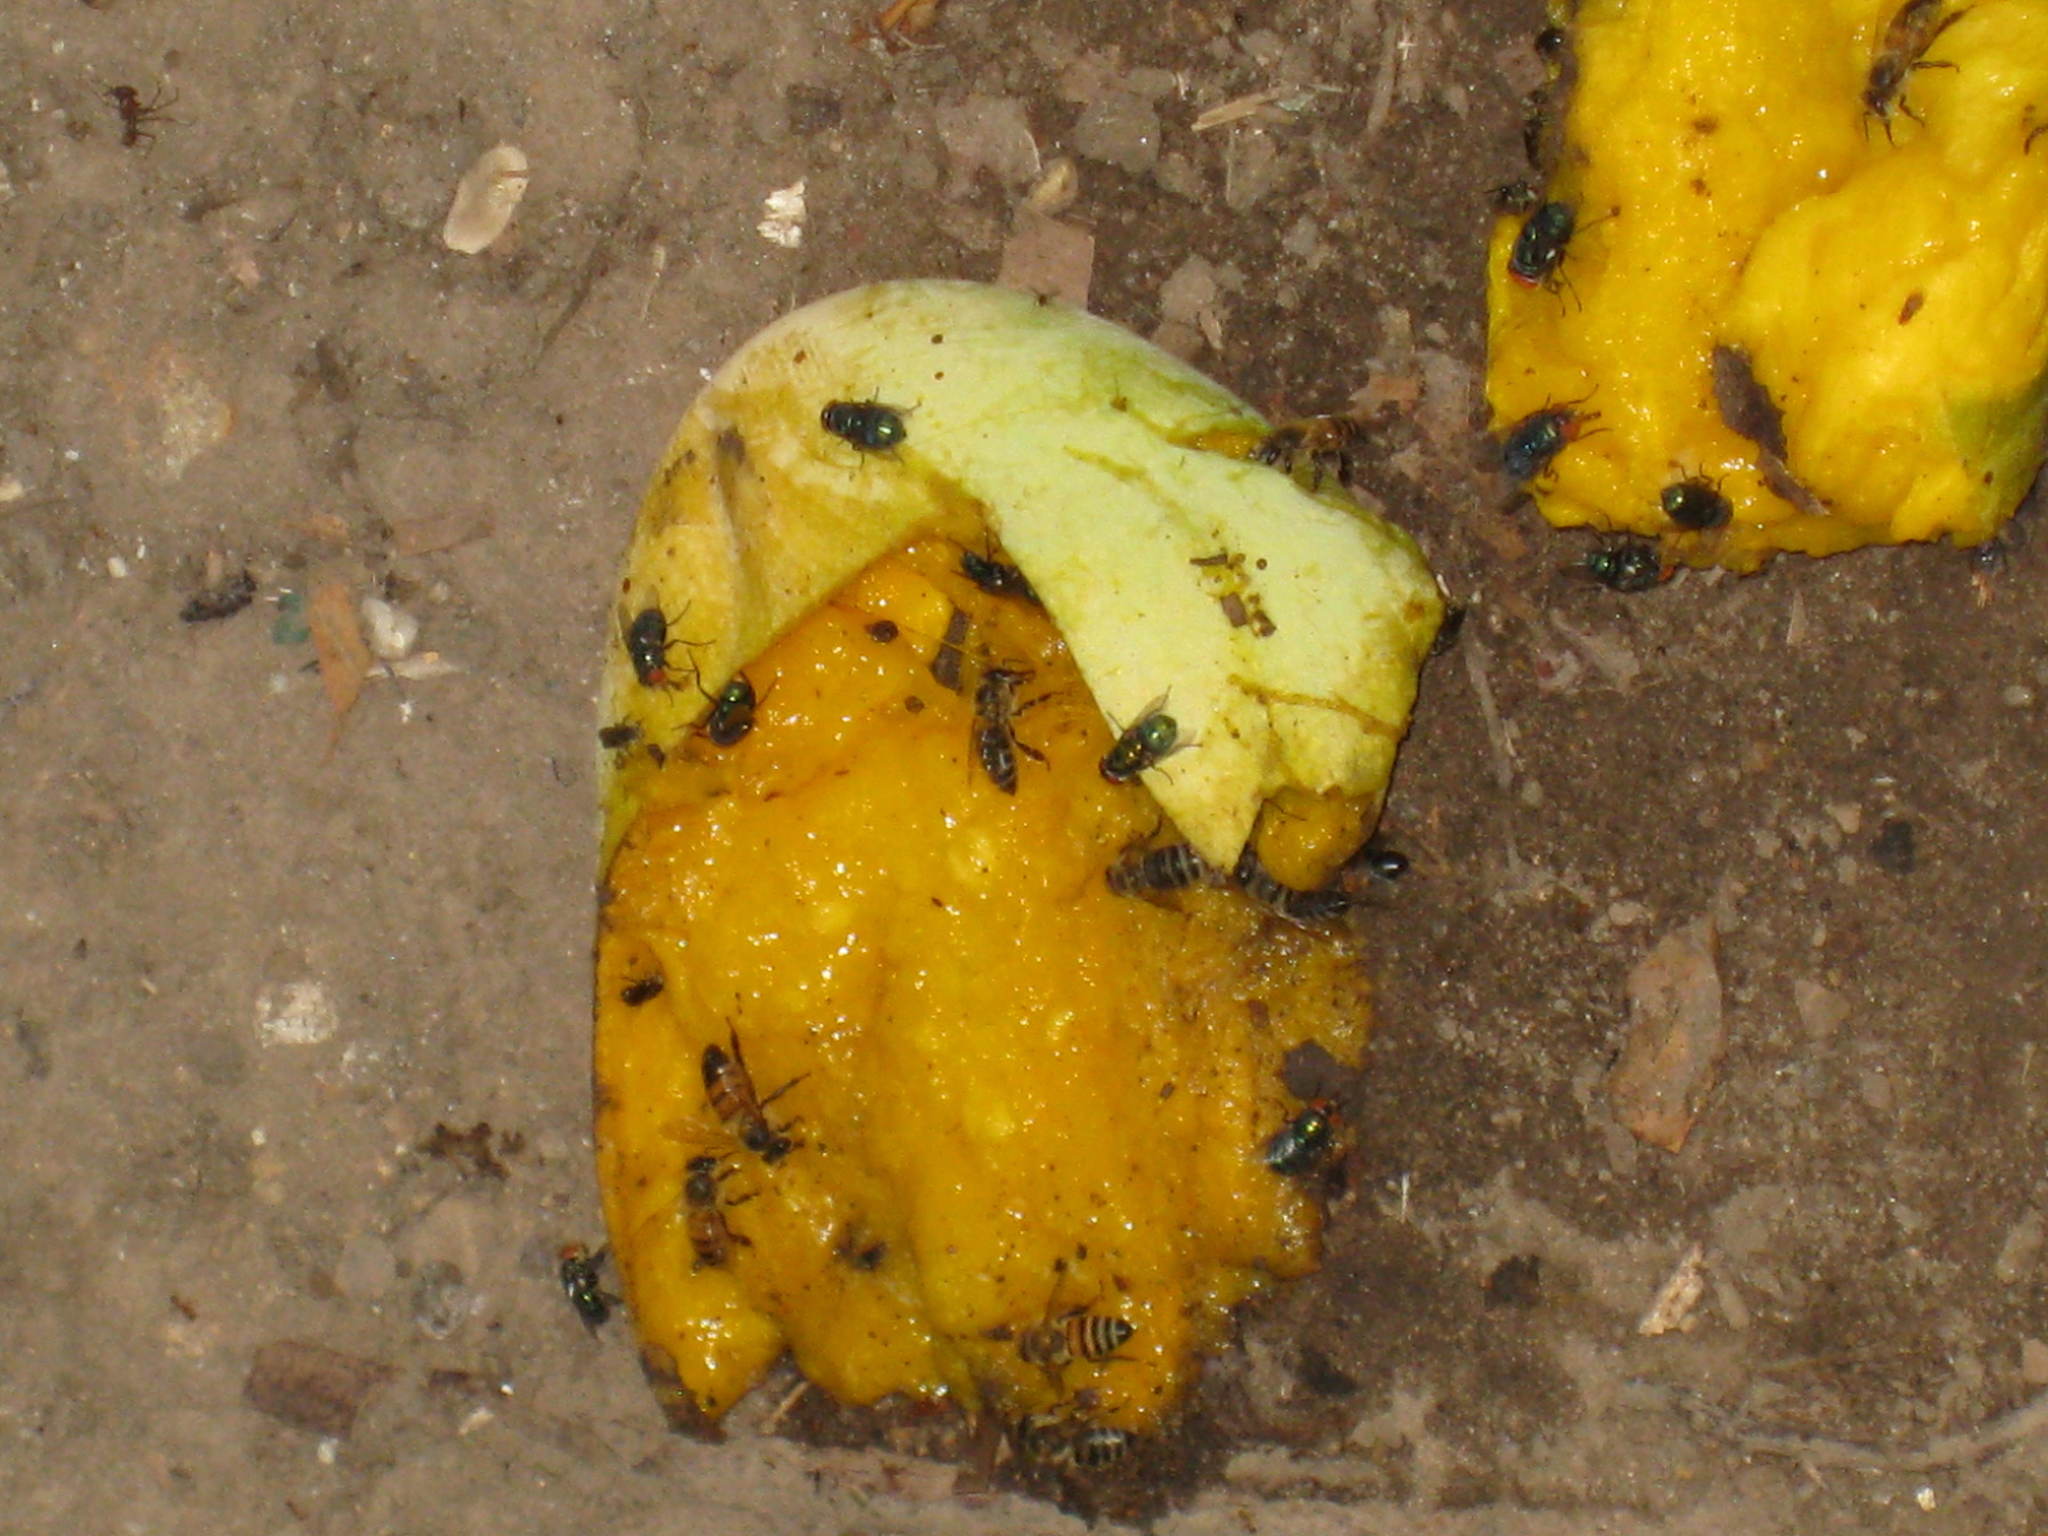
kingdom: Animalia
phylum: Arthropoda
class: Insecta
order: Hymenoptera
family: Apidae
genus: Apis
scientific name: Apis mellifera
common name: Honey bee
